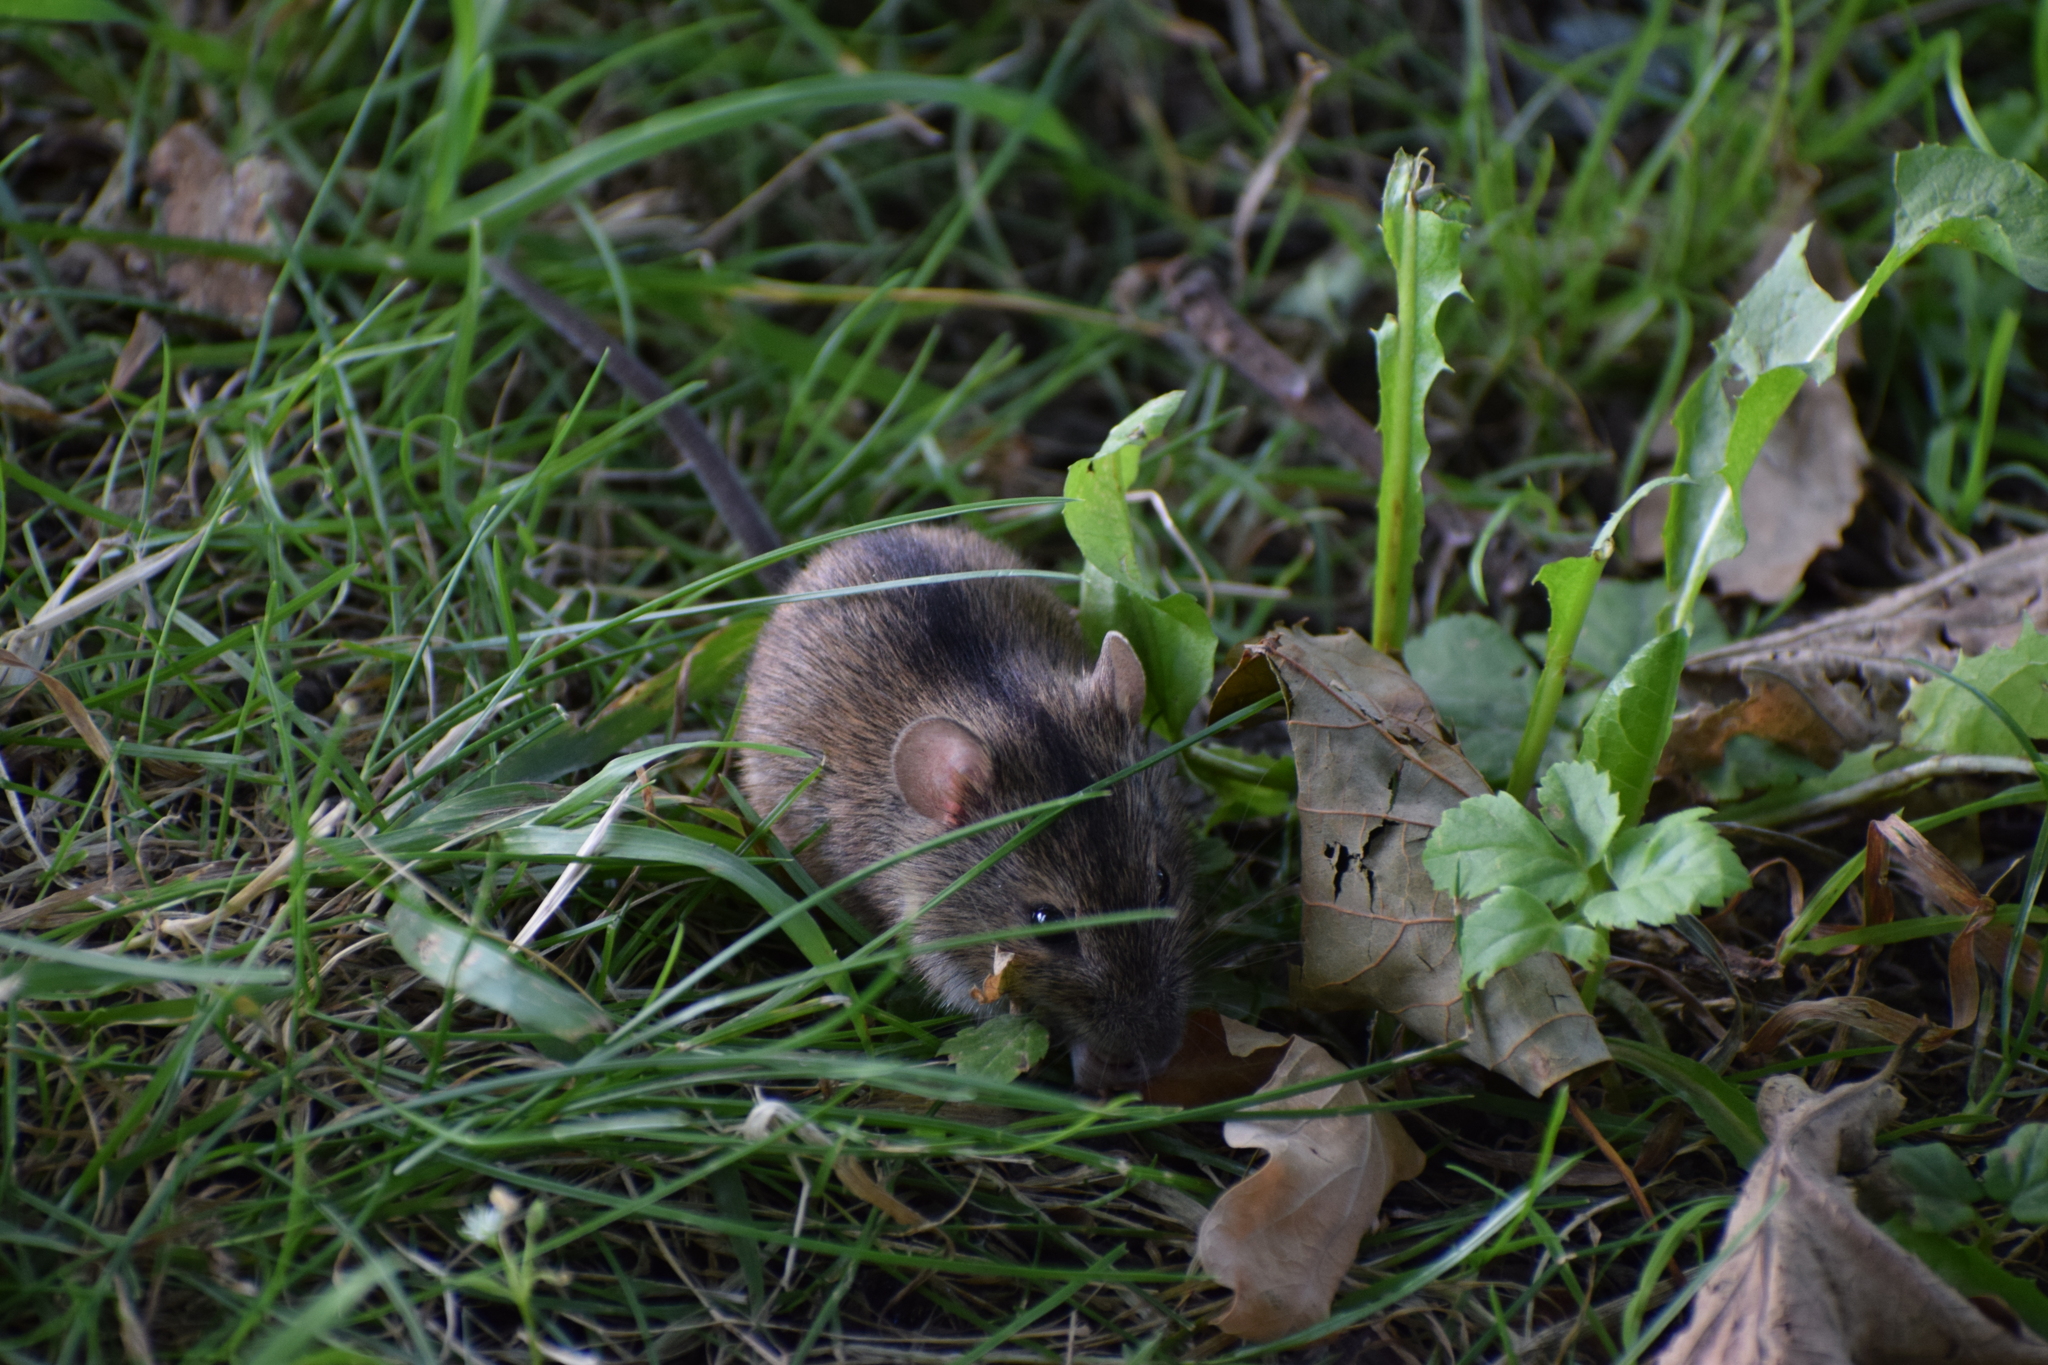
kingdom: Animalia
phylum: Chordata
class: Mammalia
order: Rodentia
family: Muridae
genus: Apodemus
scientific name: Apodemus agrarius
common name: Striped field mouse
